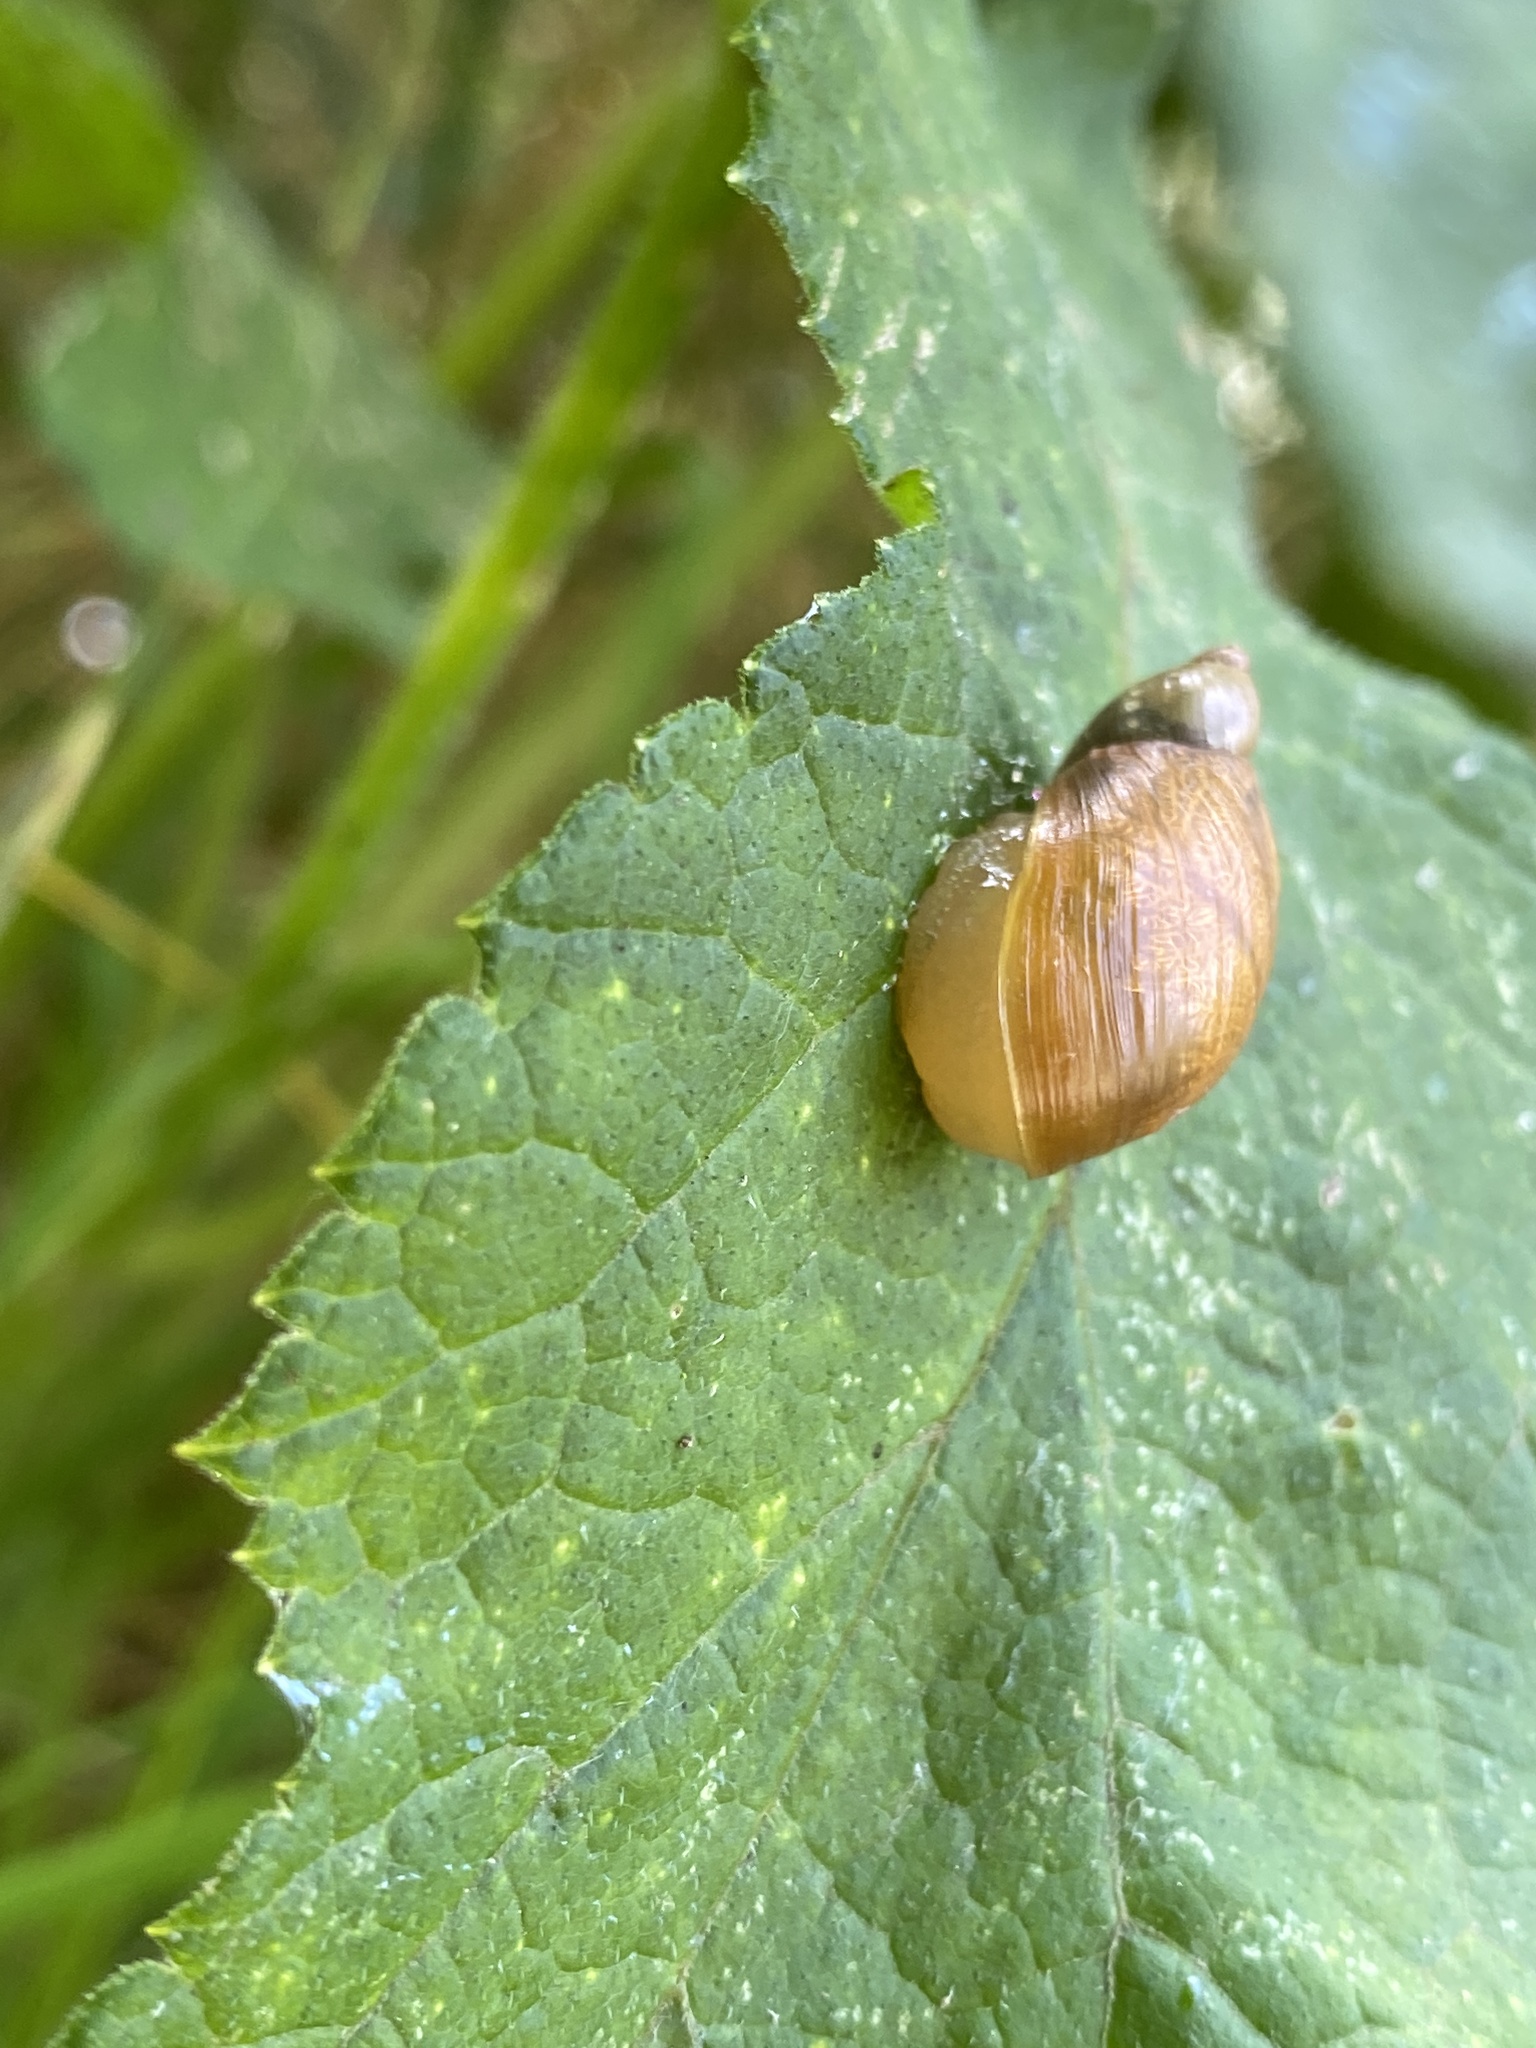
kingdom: Animalia
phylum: Mollusca
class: Gastropoda
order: Stylommatophora
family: Succineidae
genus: Succinea
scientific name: Succinea putris
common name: European ambersnail
